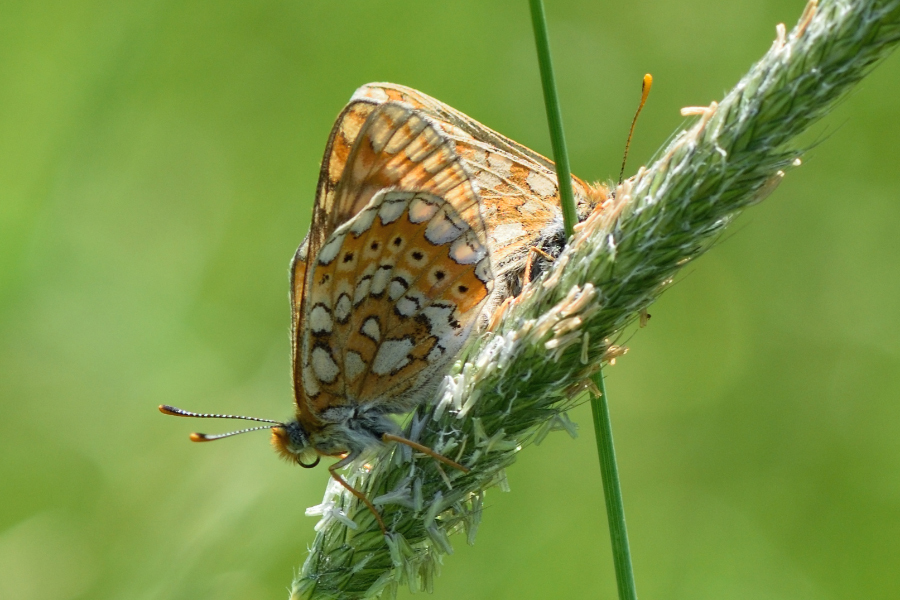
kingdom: Animalia
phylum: Arthropoda
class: Insecta
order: Lepidoptera
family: Nymphalidae
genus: Euphydryas
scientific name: Euphydryas aurinia
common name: Marsh fritillary
